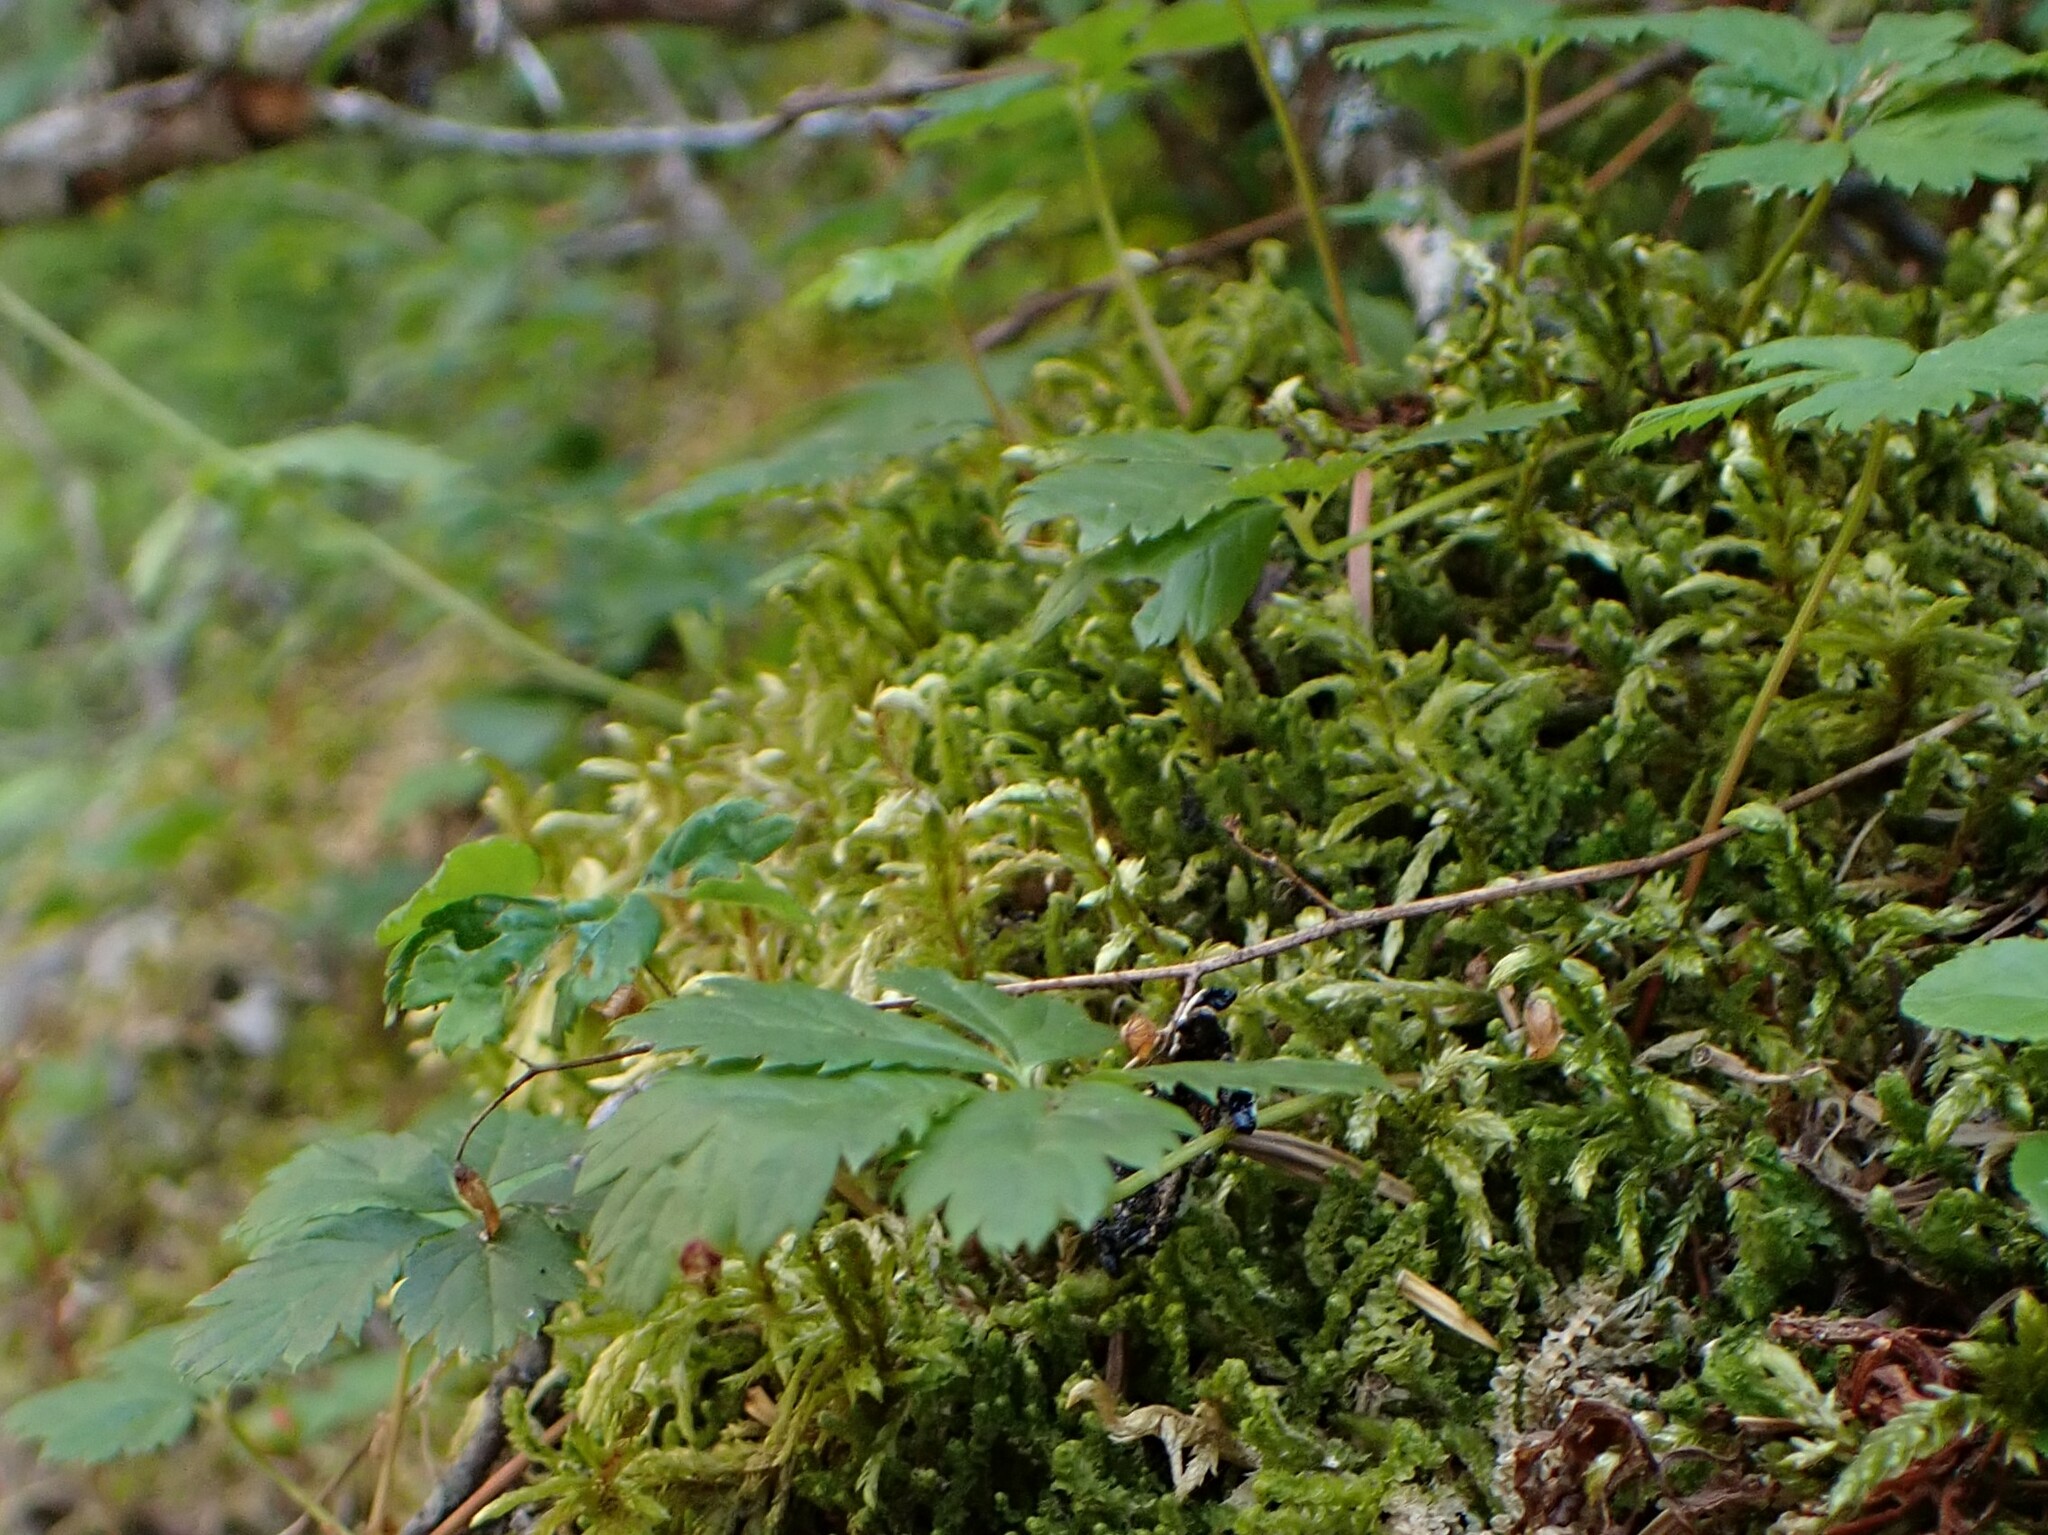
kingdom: Plantae
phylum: Tracheophyta
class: Magnoliopsida
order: Rosales
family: Rosaceae
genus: Rubus
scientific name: Rubus pedatus
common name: Creeping raspberry
